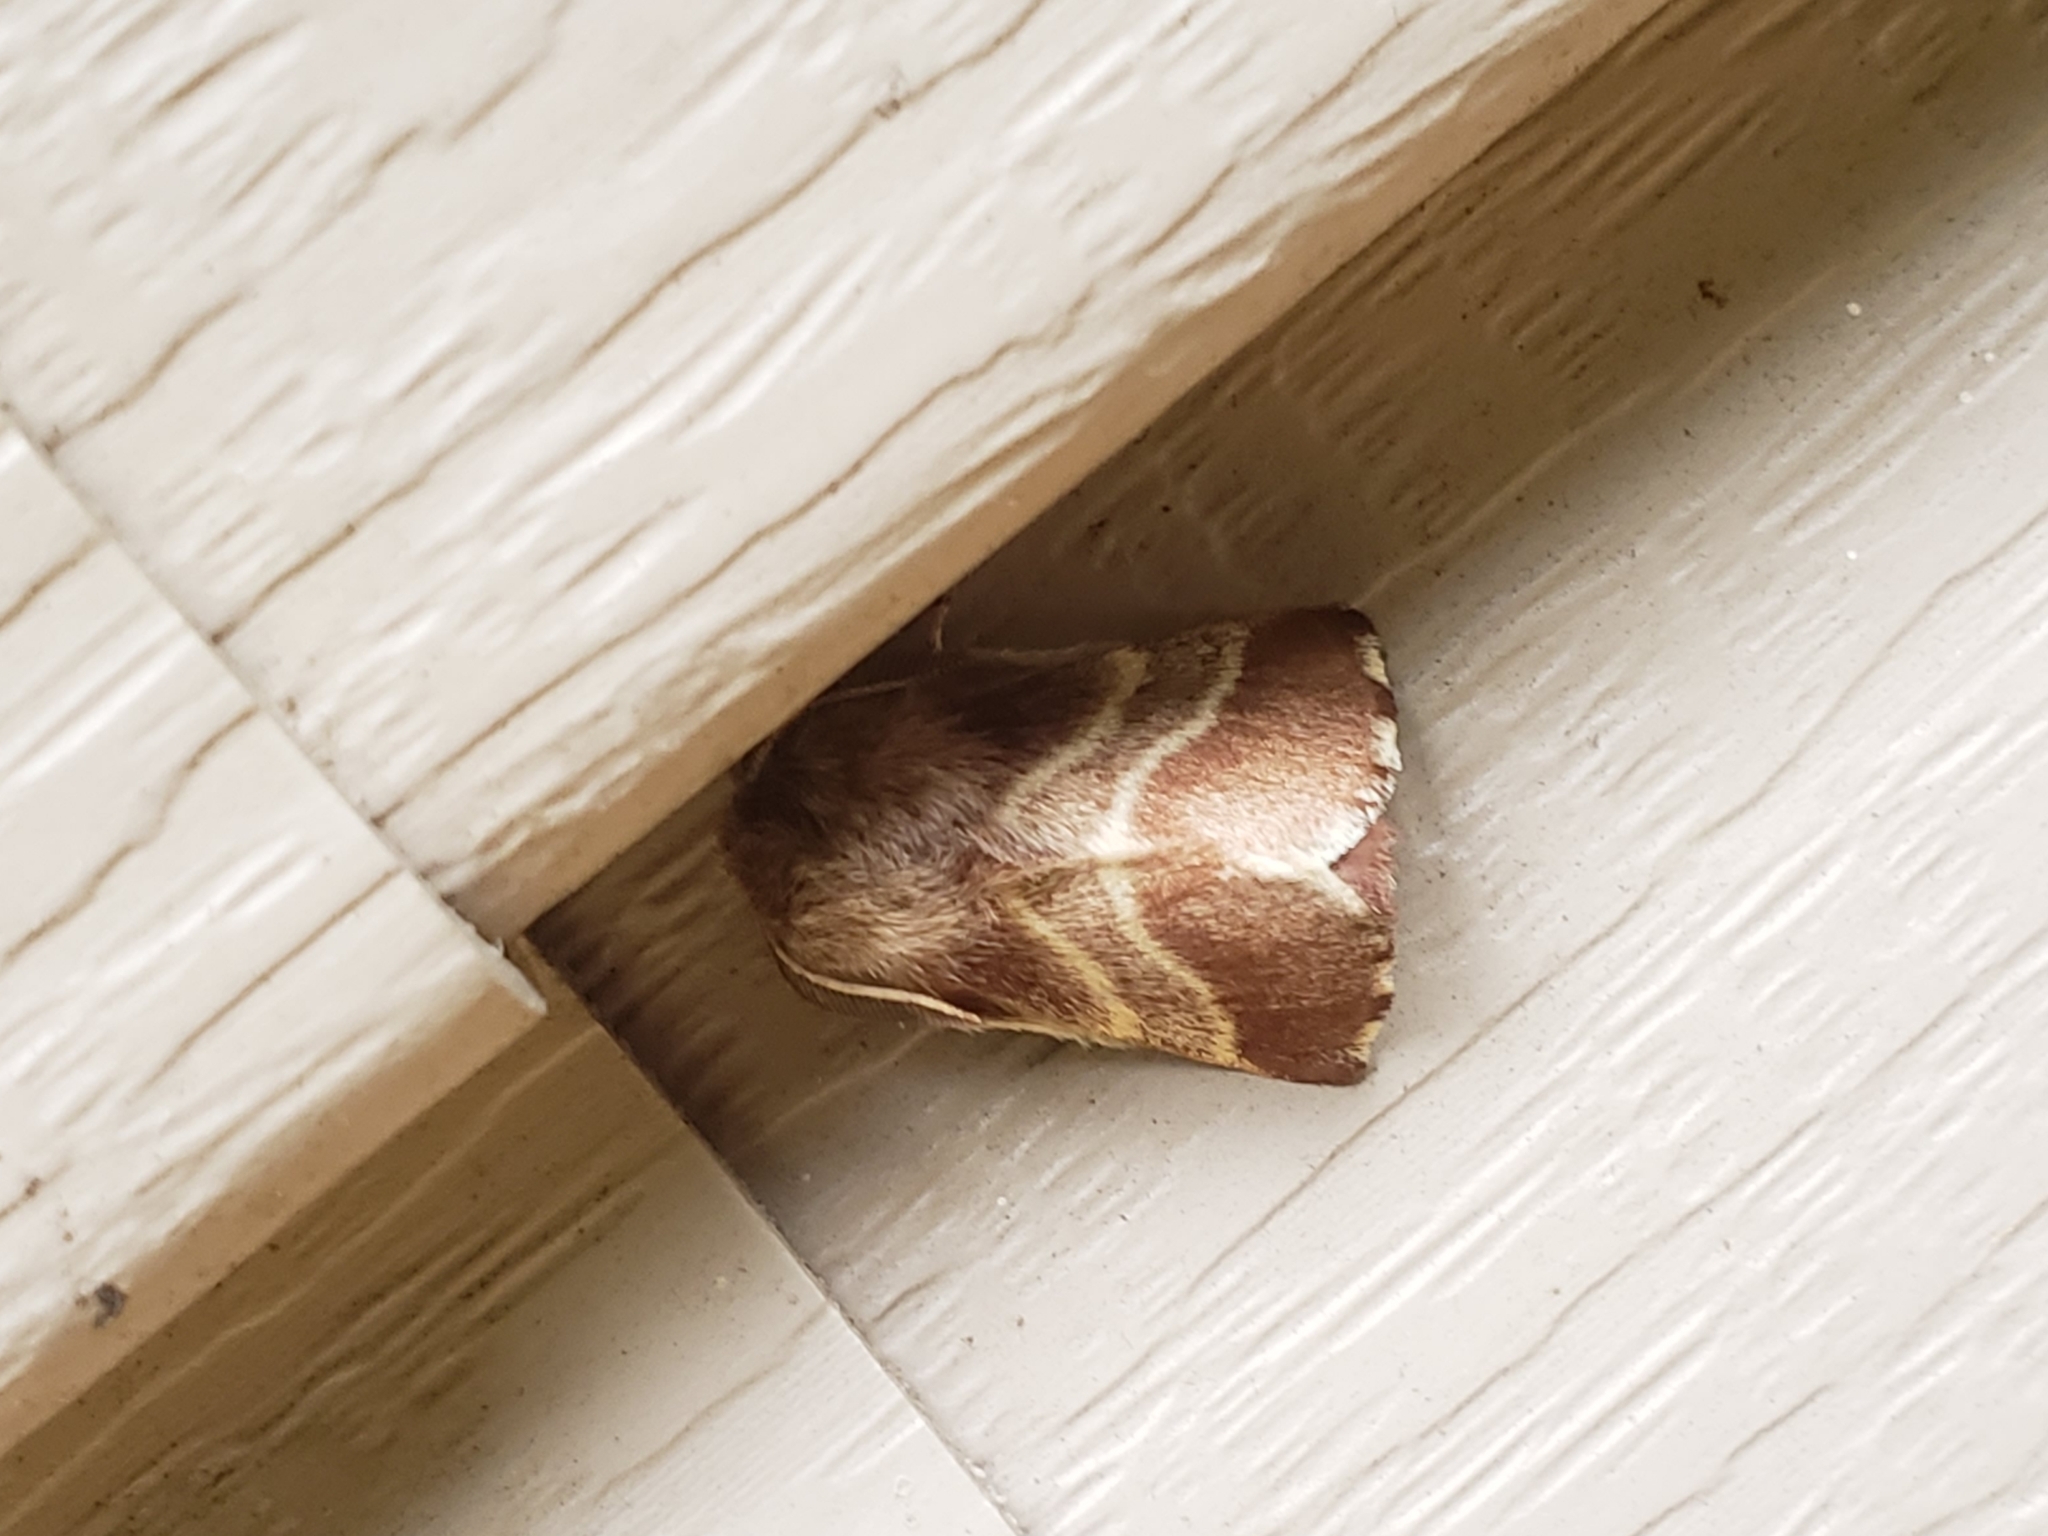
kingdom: Animalia
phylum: Arthropoda
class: Insecta
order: Lepidoptera
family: Lasiocampidae
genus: Malacosoma
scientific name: Malacosoma americana
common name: Eastern tent caterpillar moth
